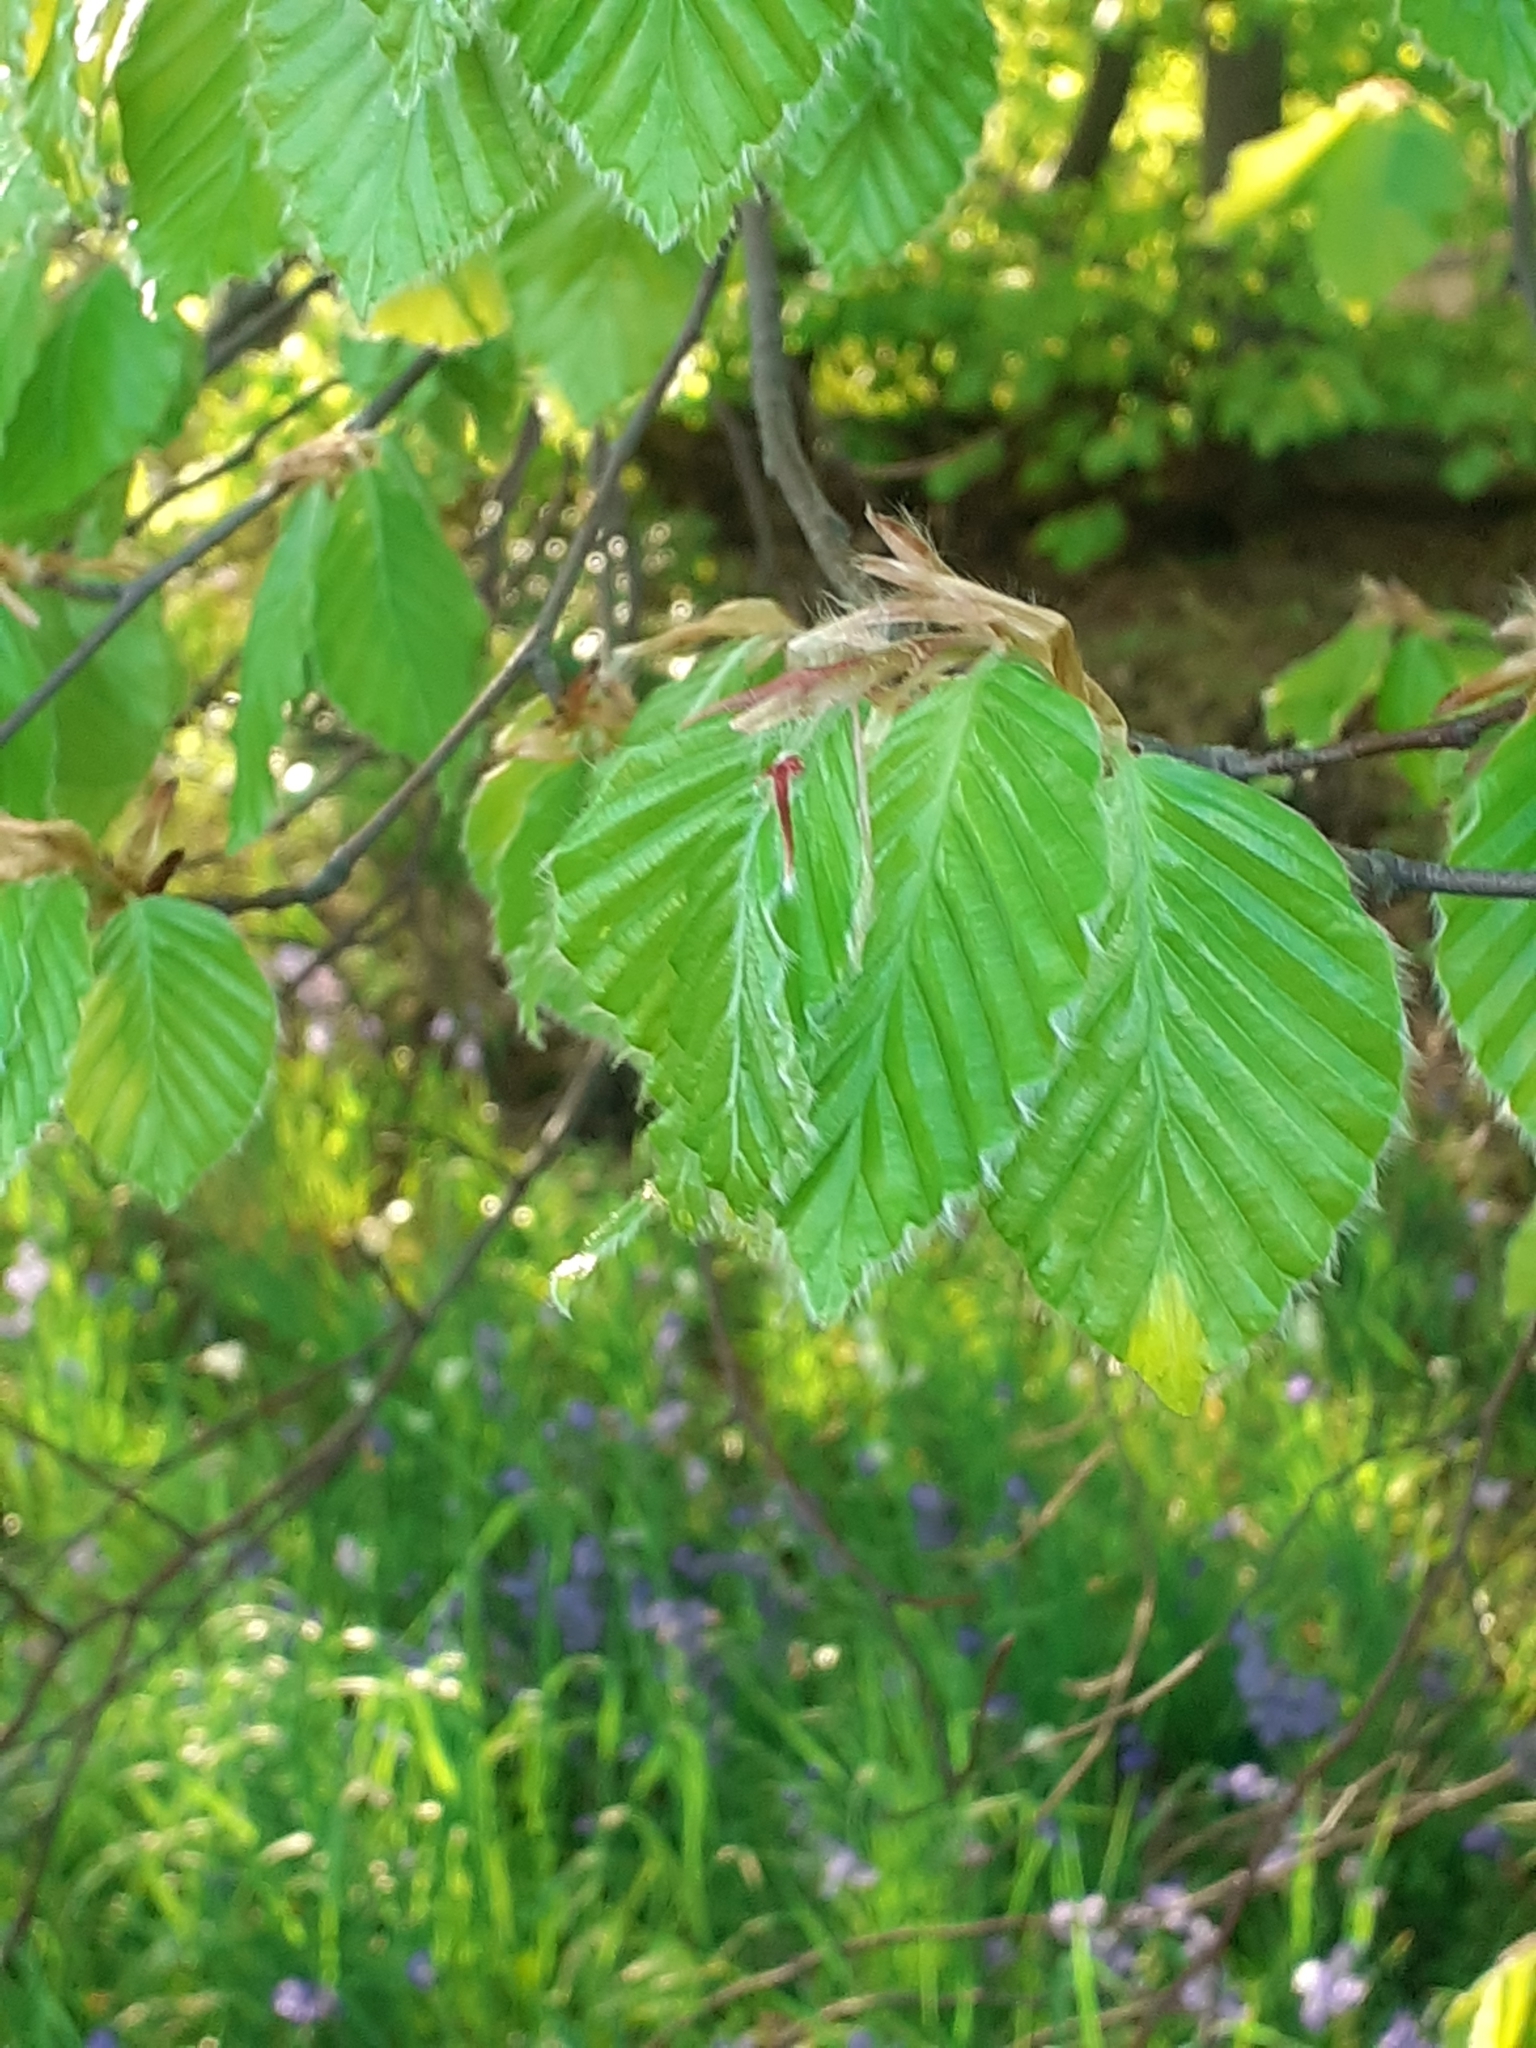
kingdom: Plantae
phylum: Tracheophyta
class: Magnoliopsida
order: Fagales
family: Fagaceae
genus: Fagus
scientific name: Fagus sylvatica
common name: Beech
